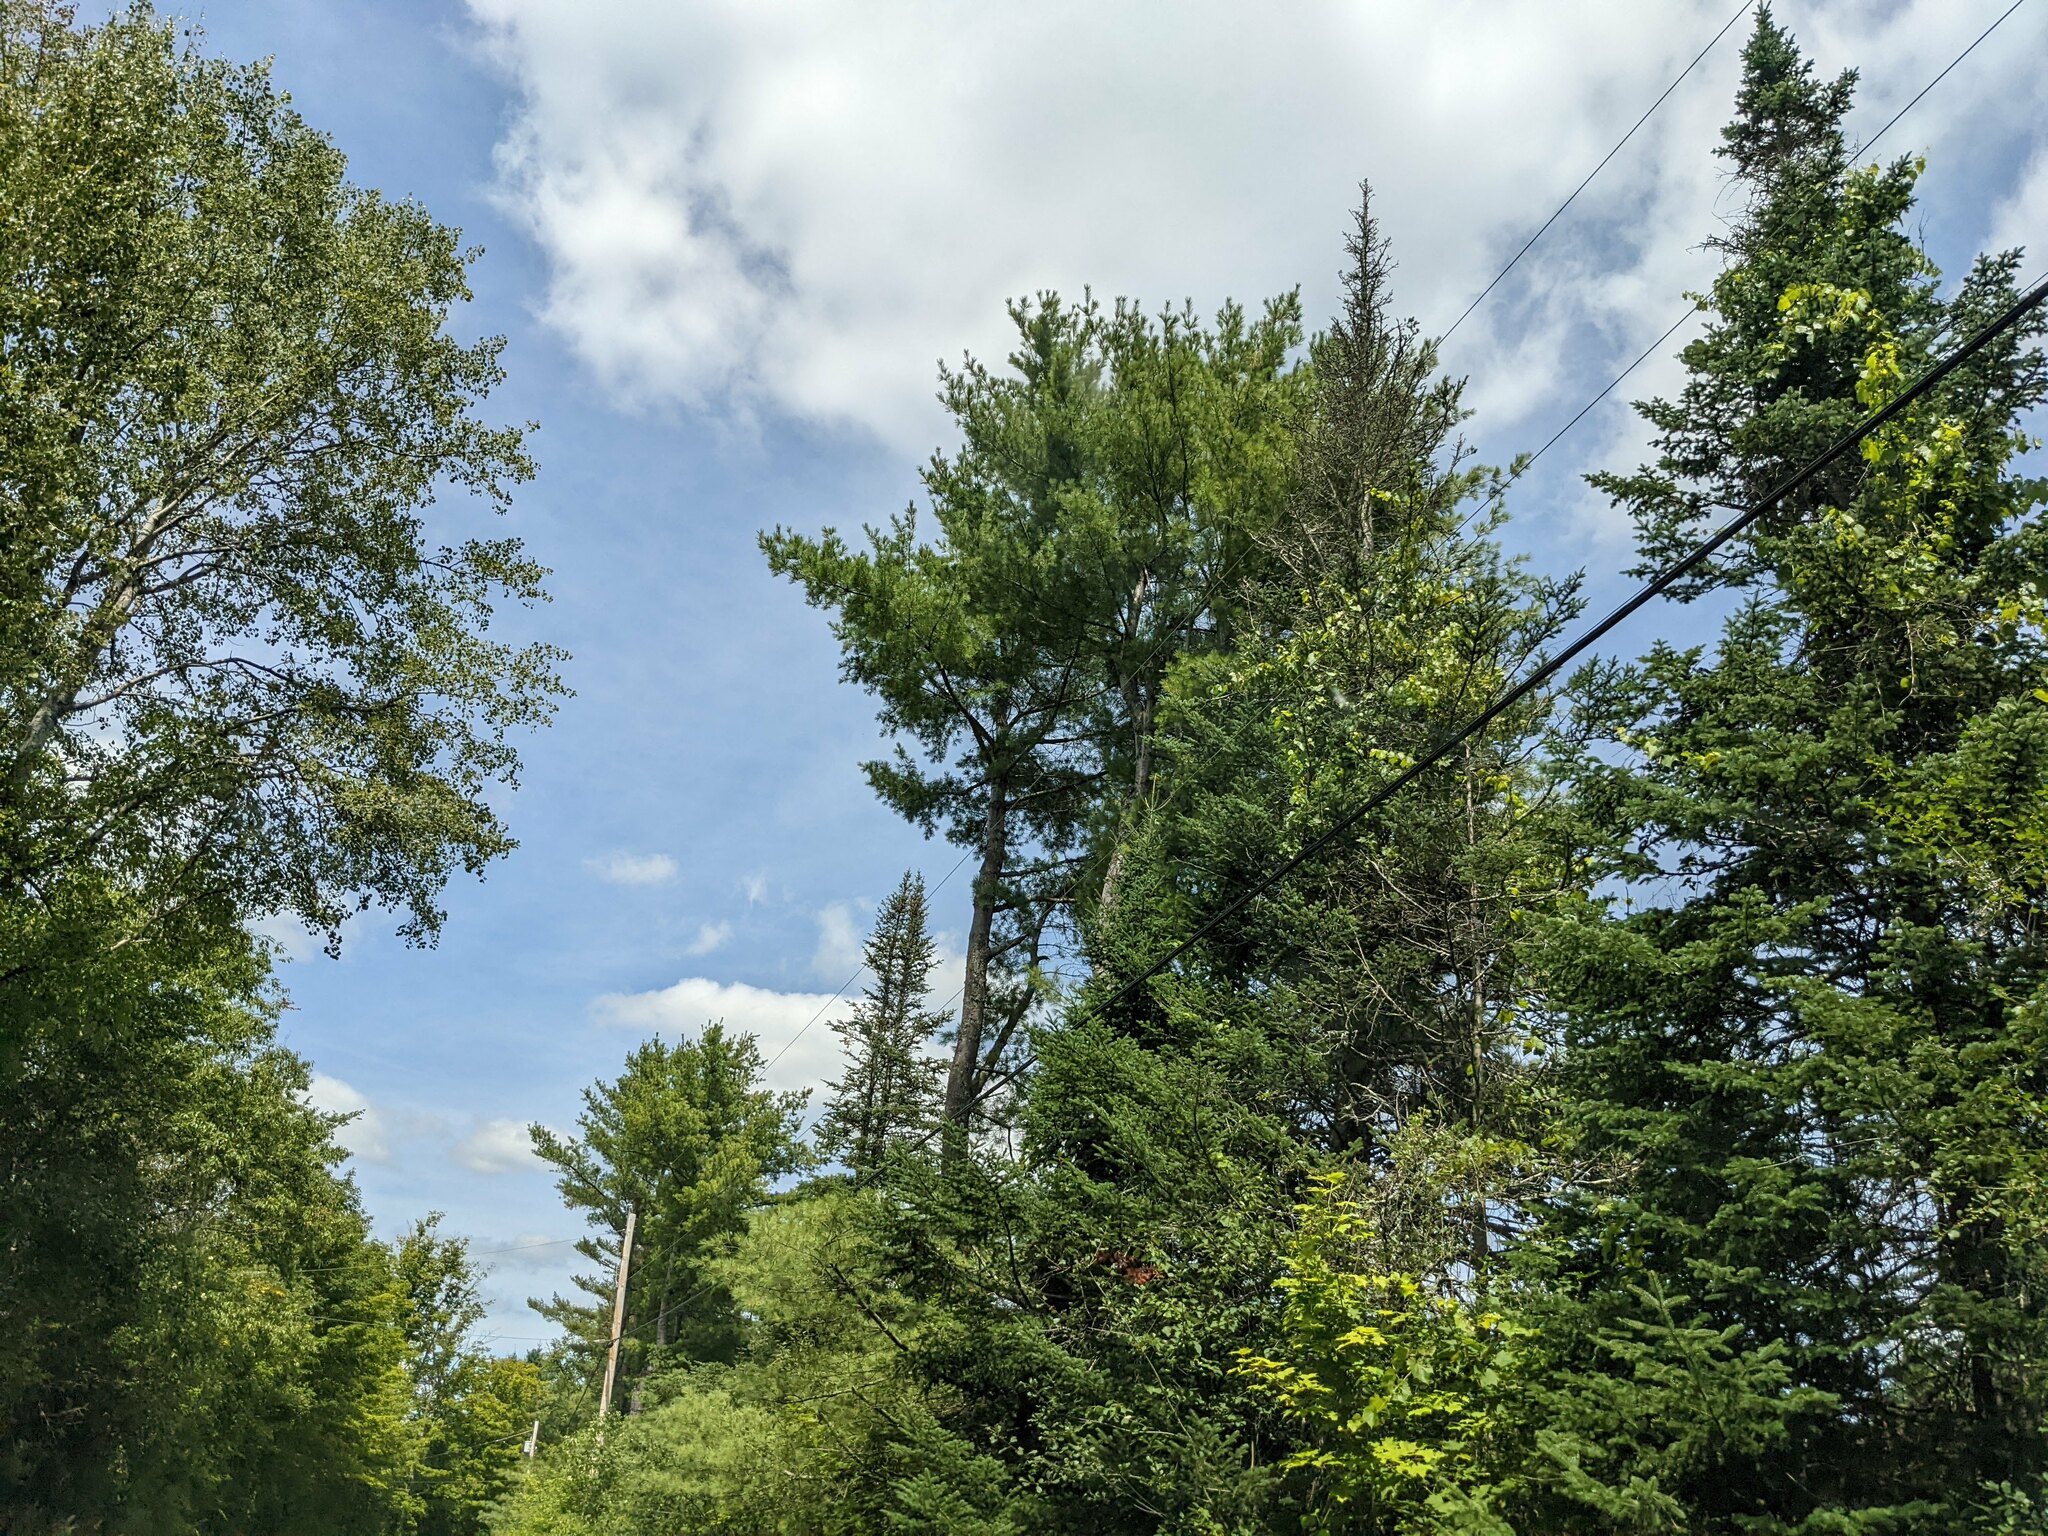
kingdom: Plantae
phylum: Tracheophyta
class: Pinopsida
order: Pinales
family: Pinaceae
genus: Pinus
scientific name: Pinus strobus
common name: Weymouth pine
